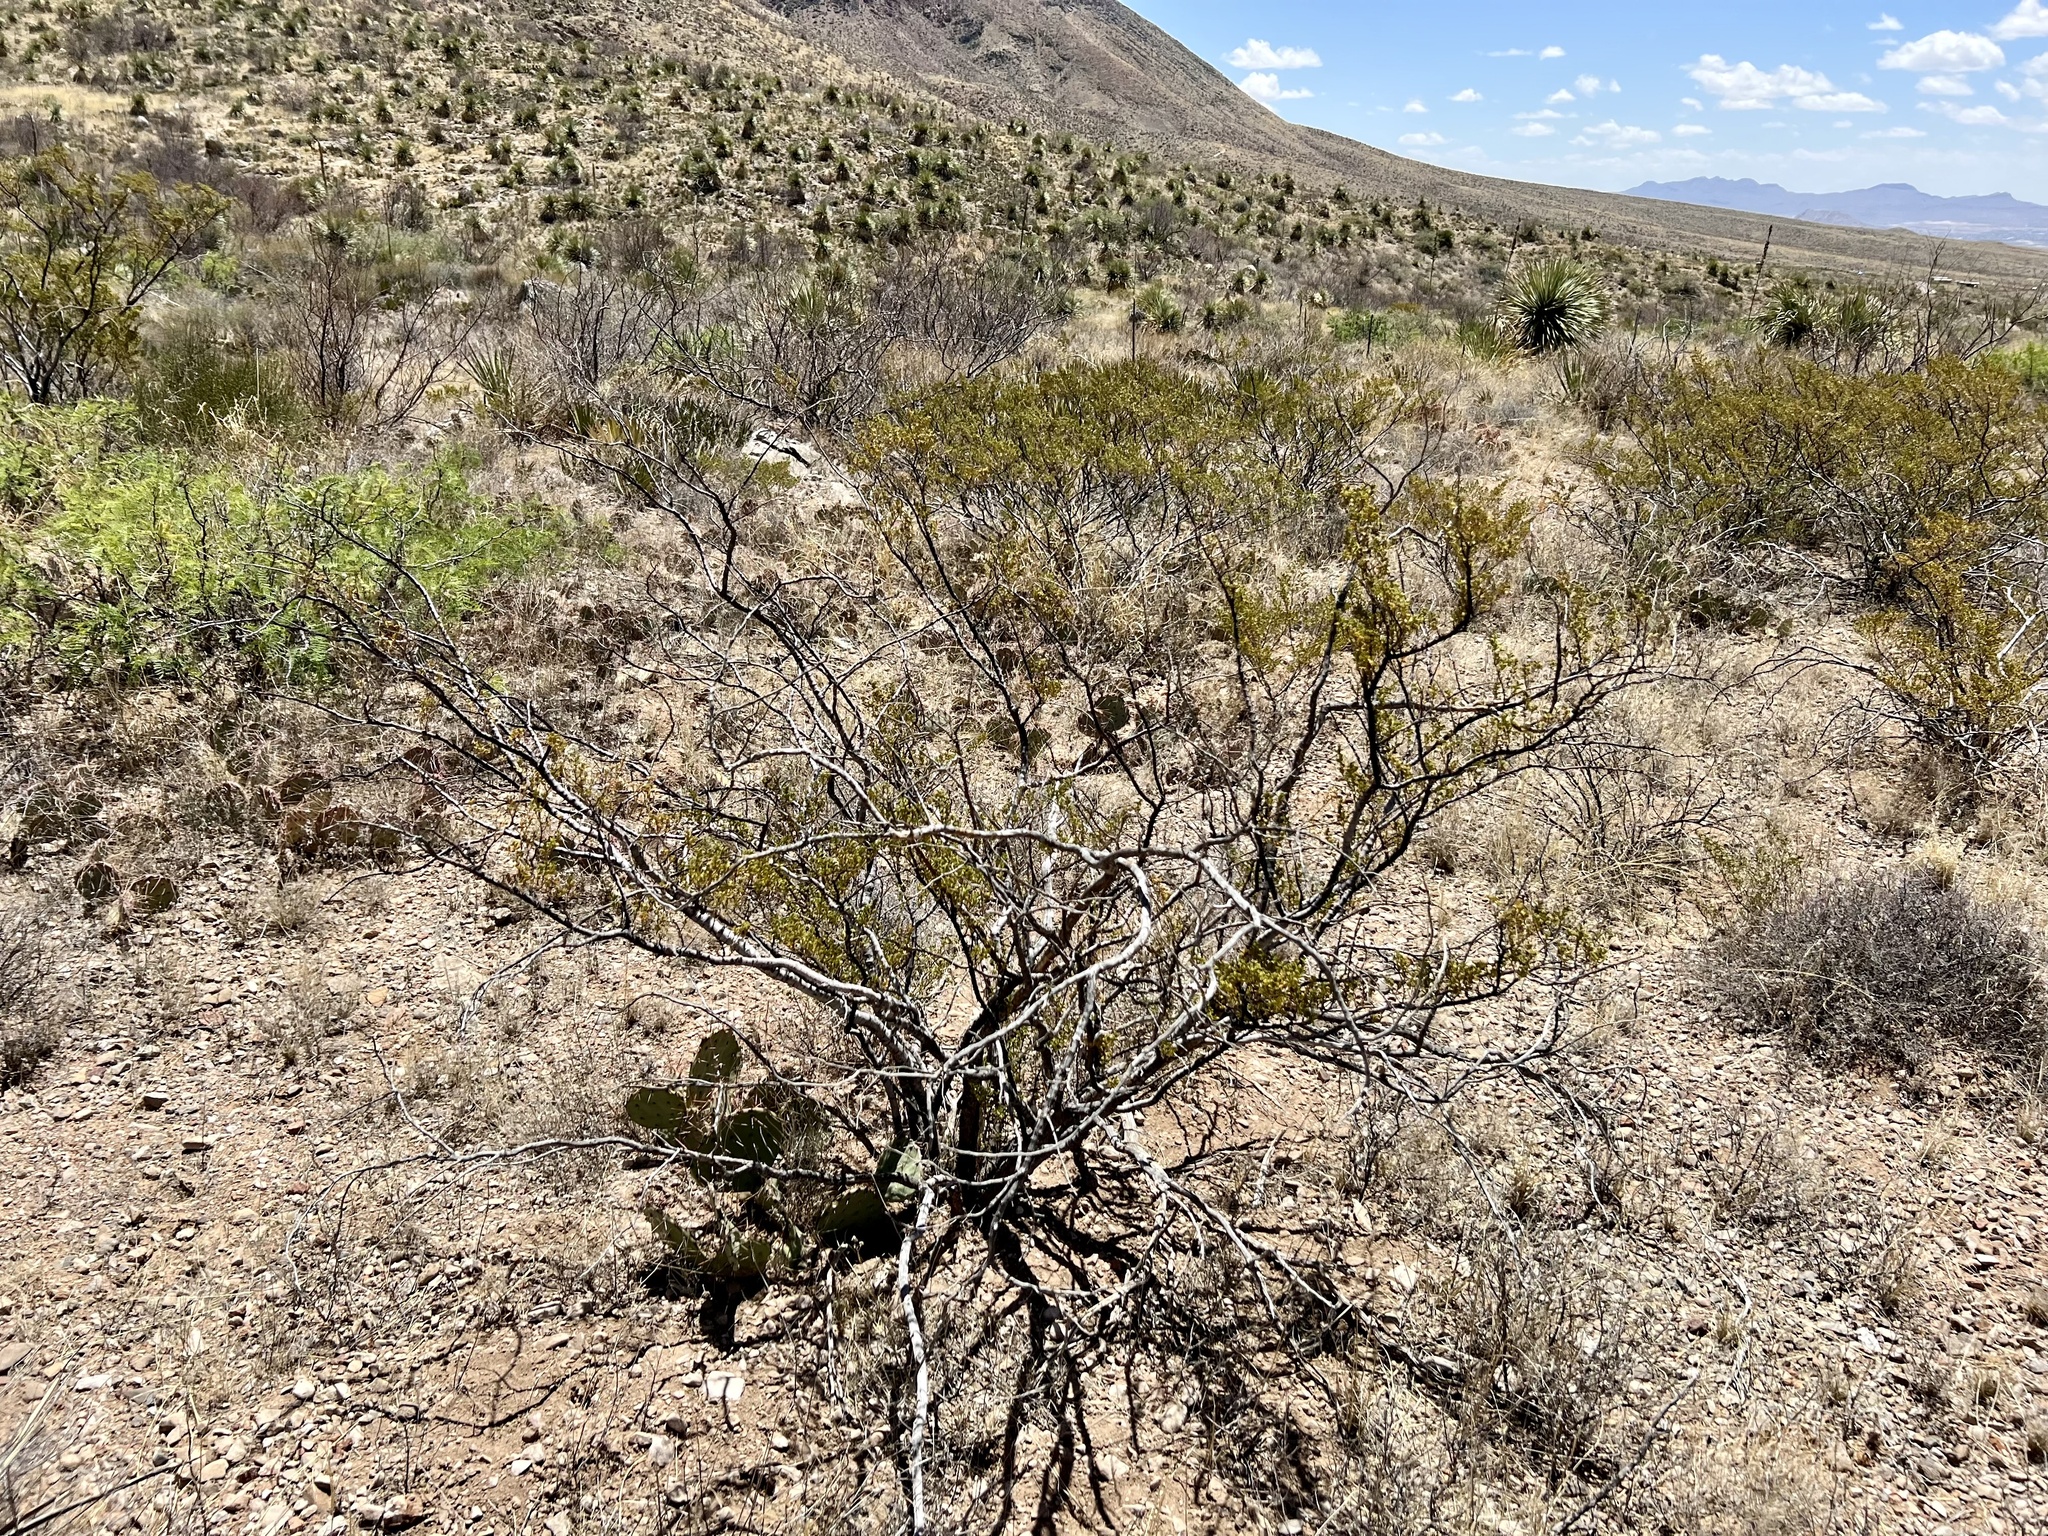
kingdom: Plantae
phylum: Tracheophyta
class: Magnoliopsida
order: Zygophyllales
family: Zygophyllaceae
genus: Larrea
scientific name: Larrea tridentata
